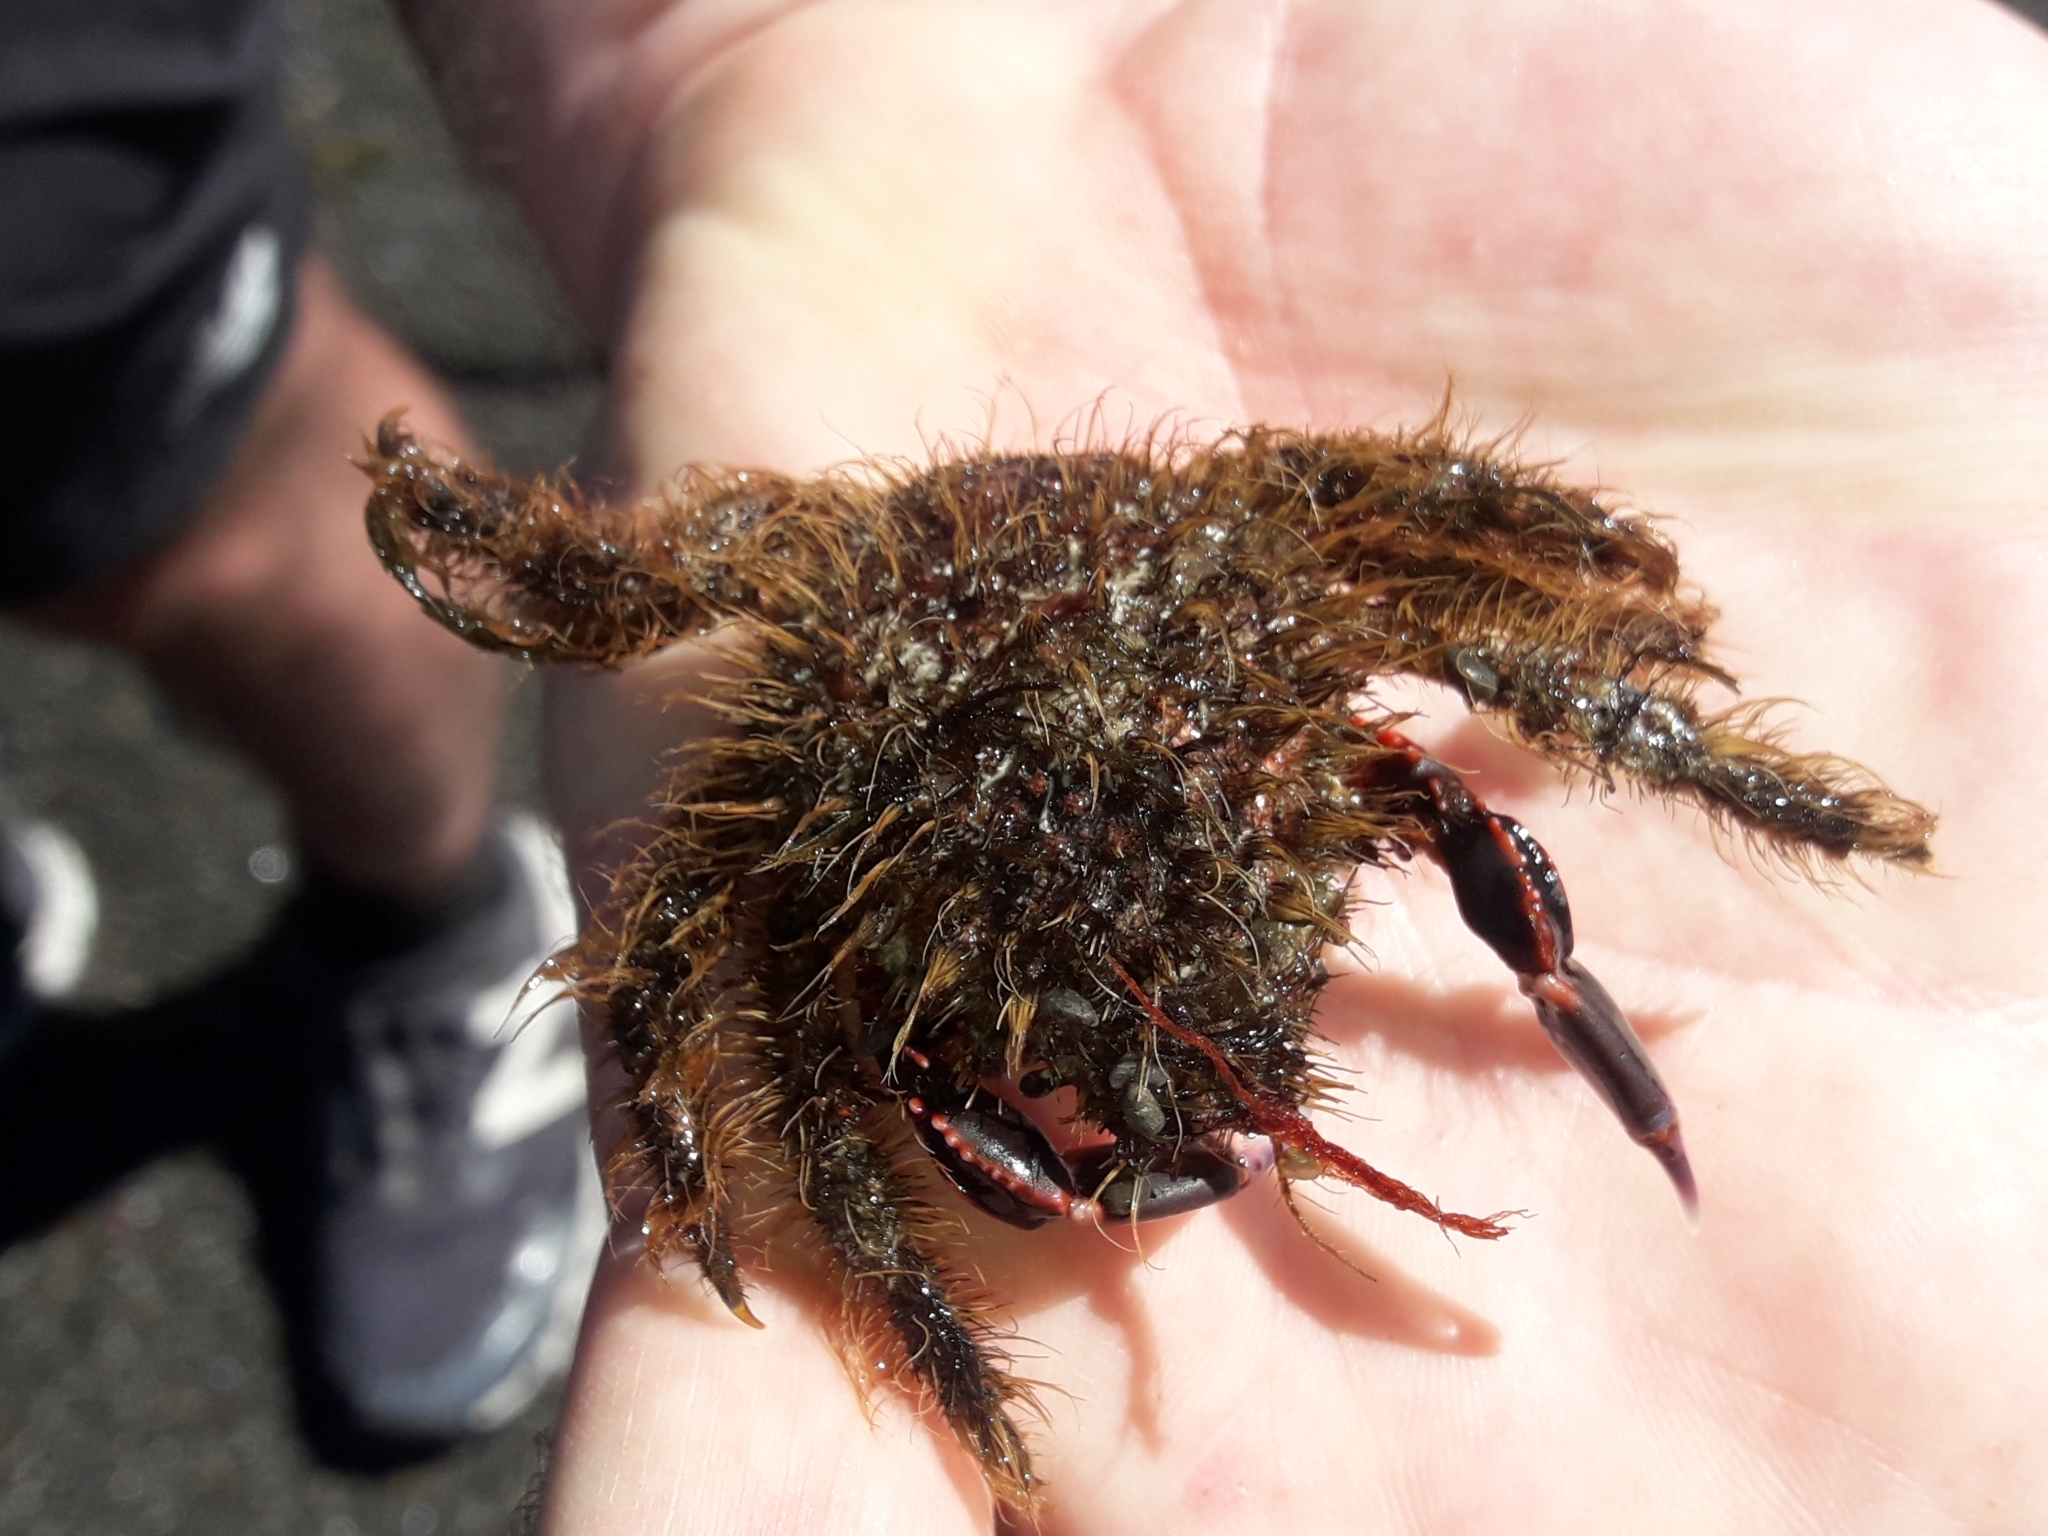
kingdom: Animalia
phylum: Arthropoda
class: Malacostraca
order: Decapoda
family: Majidae
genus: Notomithrax
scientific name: Notomithrax ursus
